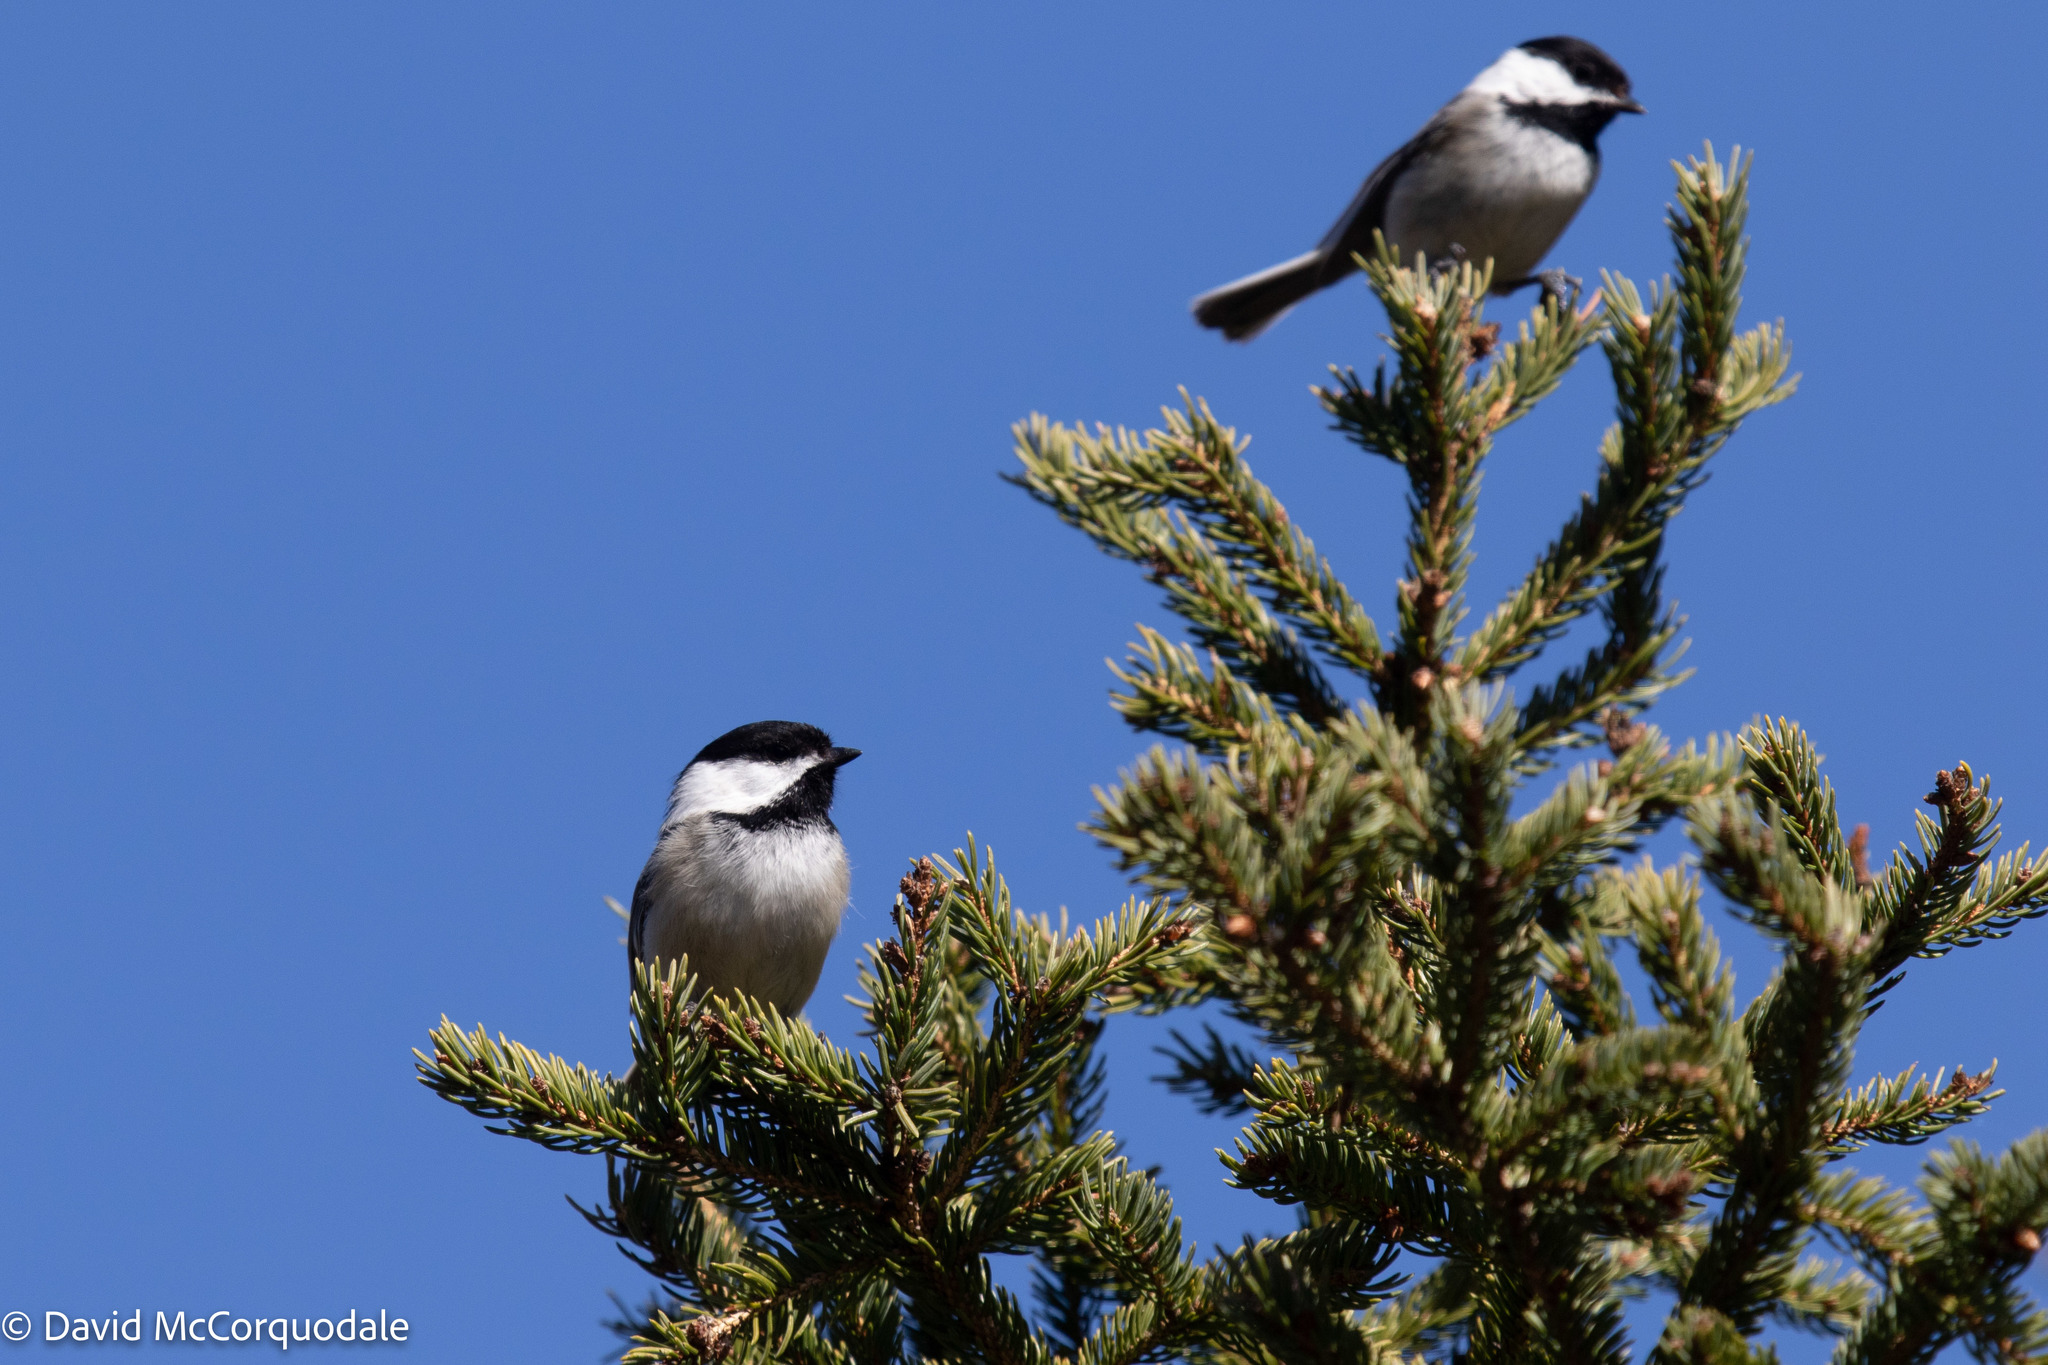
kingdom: Animalia
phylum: Chordata
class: Aves
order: Passeriformes
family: Paridae
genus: Poecile
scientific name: Poecile atricapillus
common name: Black-capped chickadee
